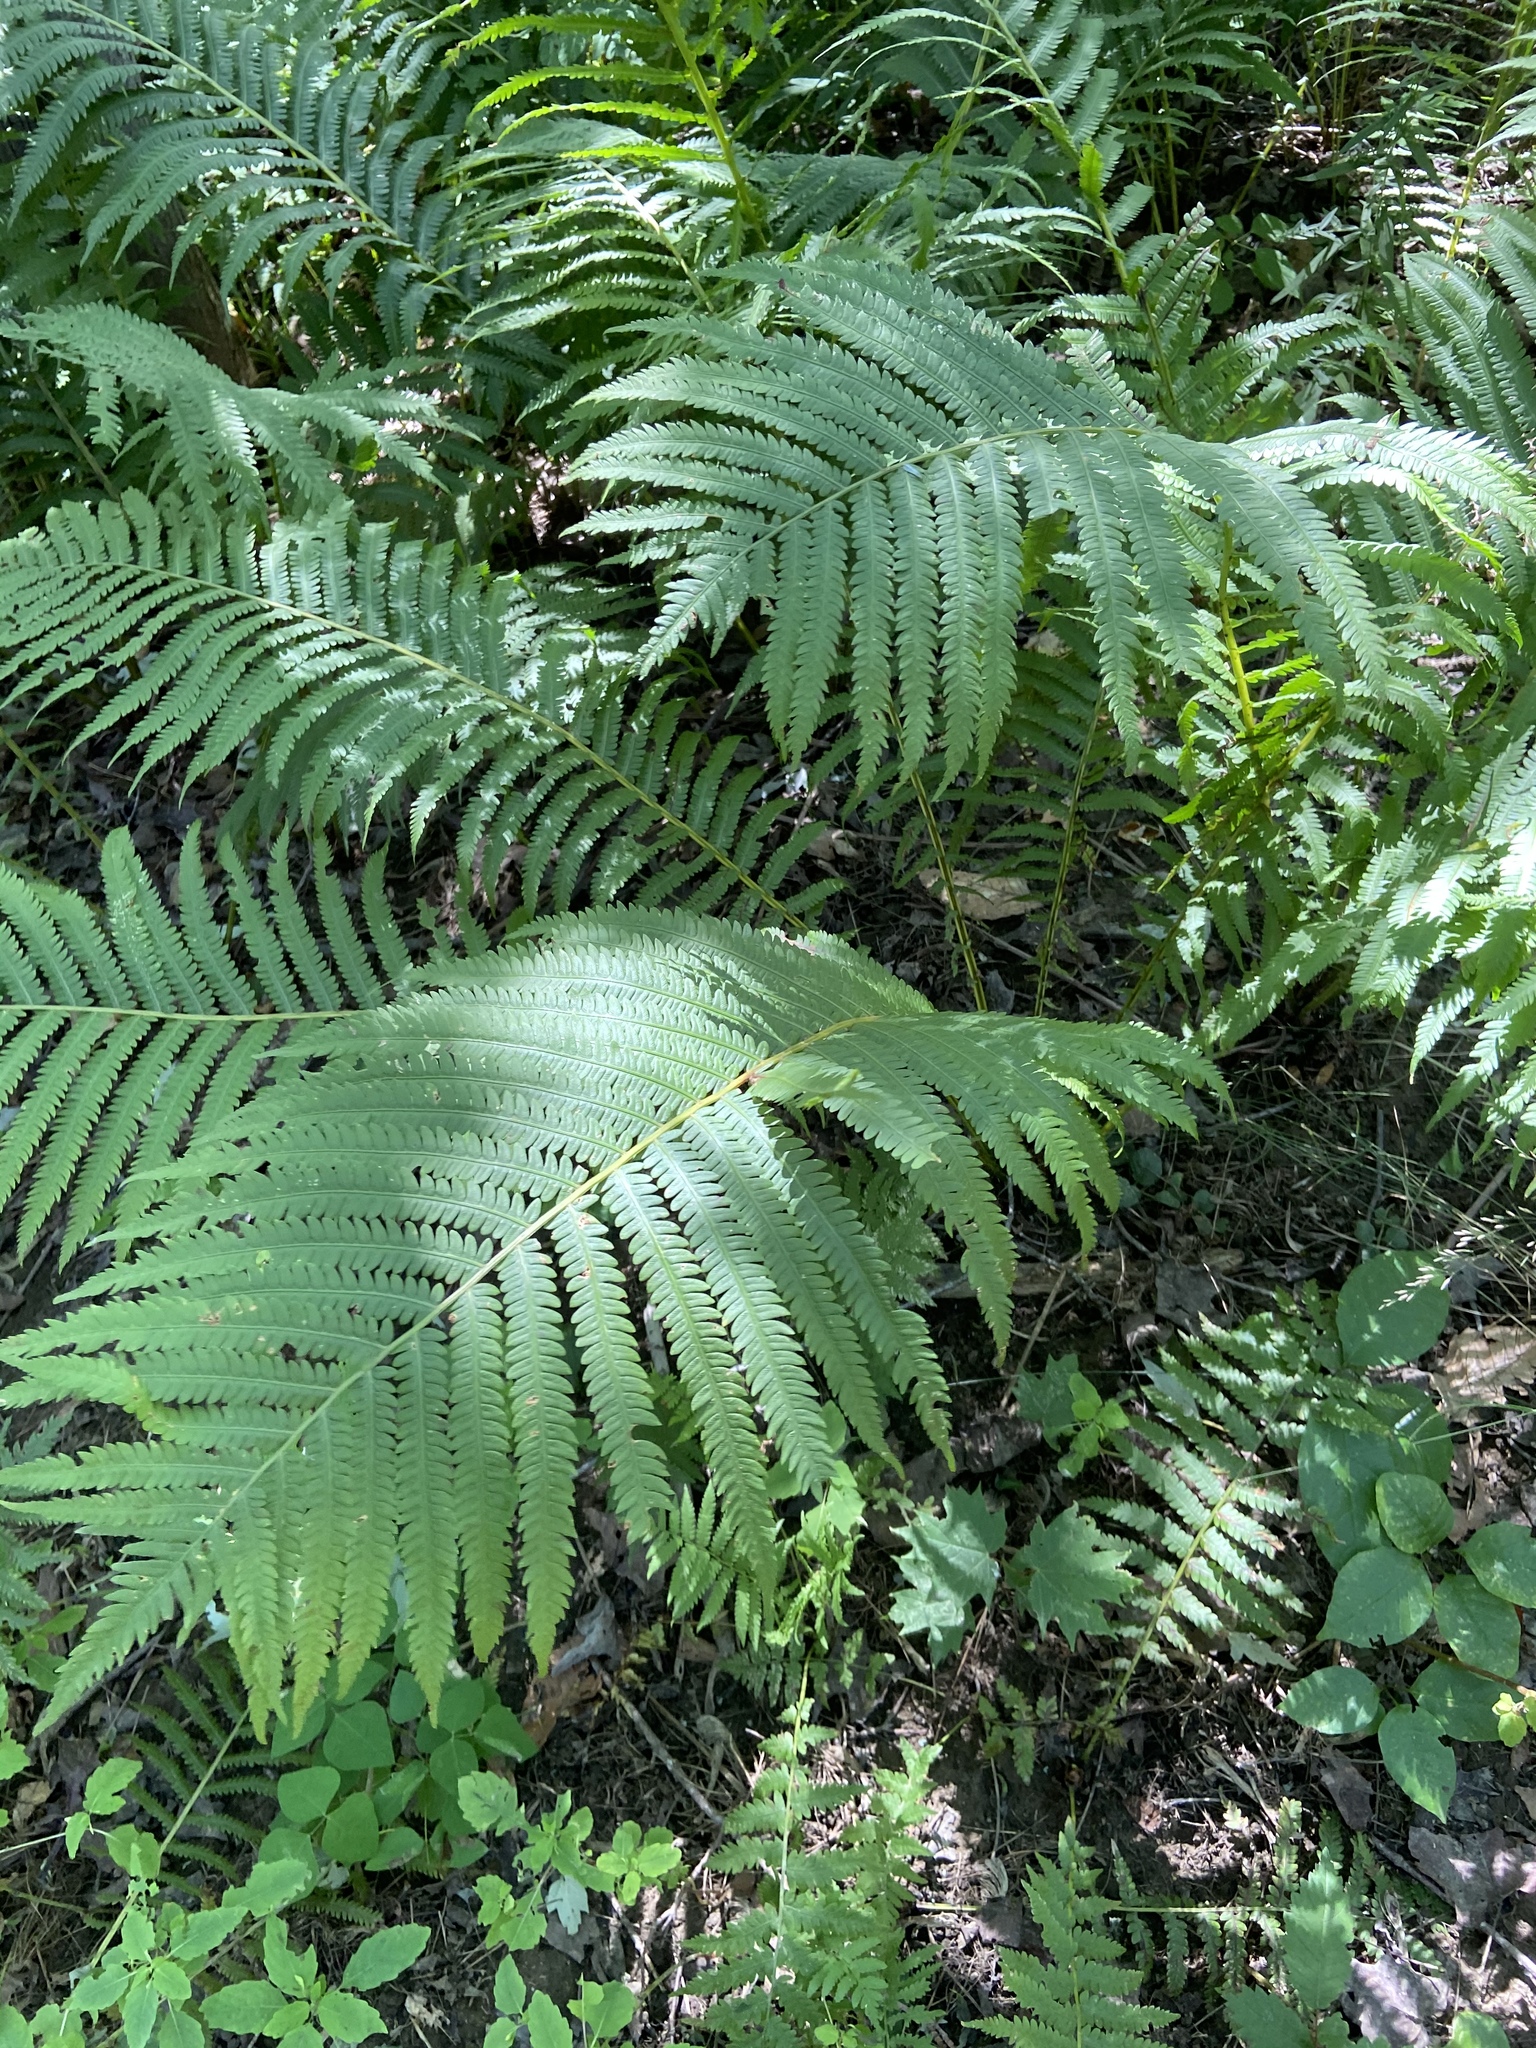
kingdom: Plantae
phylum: Tracheophyta
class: Polypodiopsida
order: Polypodiales
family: Onocleaceae
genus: Matteuccia
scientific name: Matteuccia struthiopteris
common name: Ostrich fern
